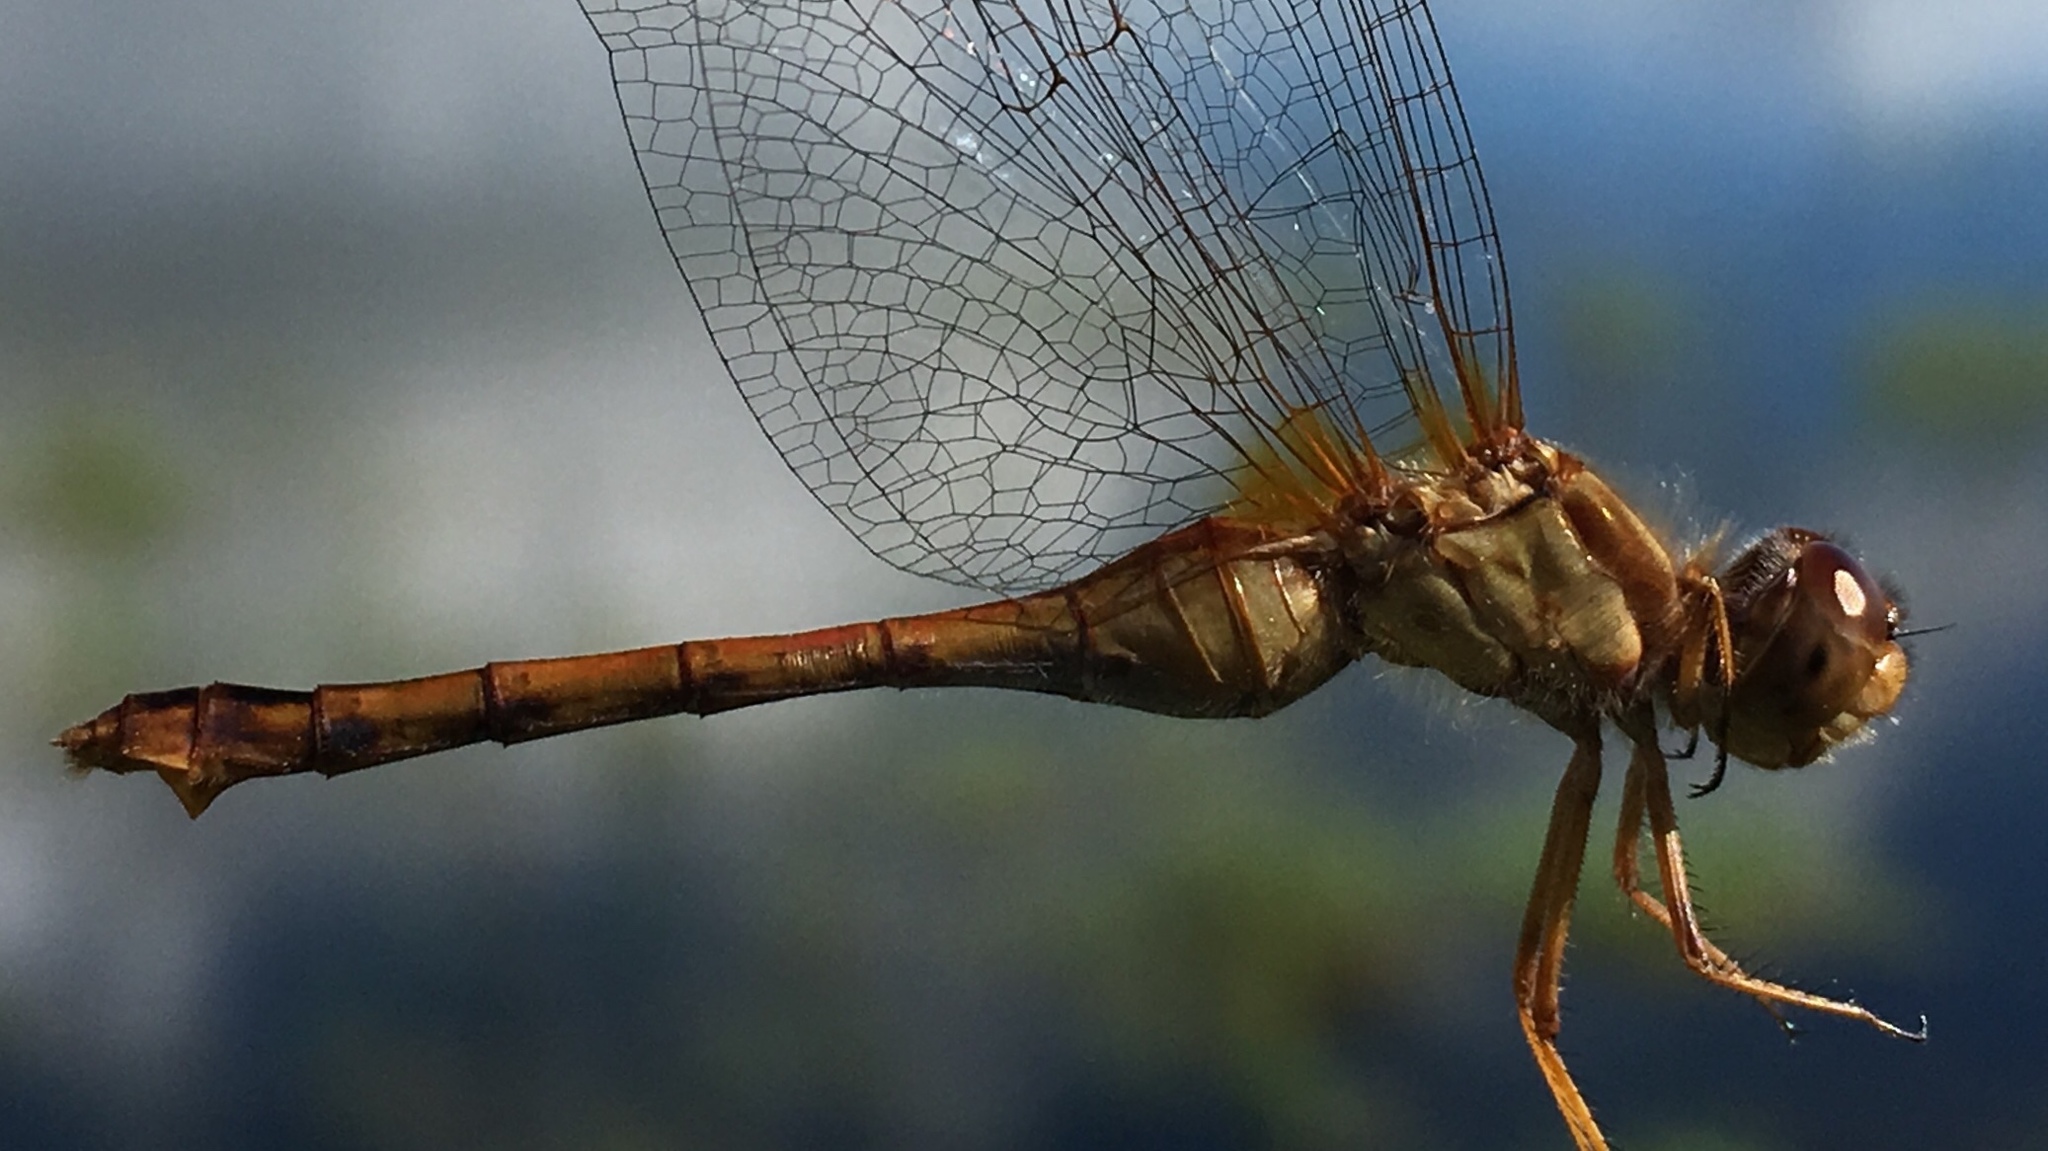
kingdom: Animalia
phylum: Arthropoda
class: Insecta
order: Odonata
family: Libellulidae
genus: Sympetrum
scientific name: Sympetrum vicinum
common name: Autumn meadowhawk
